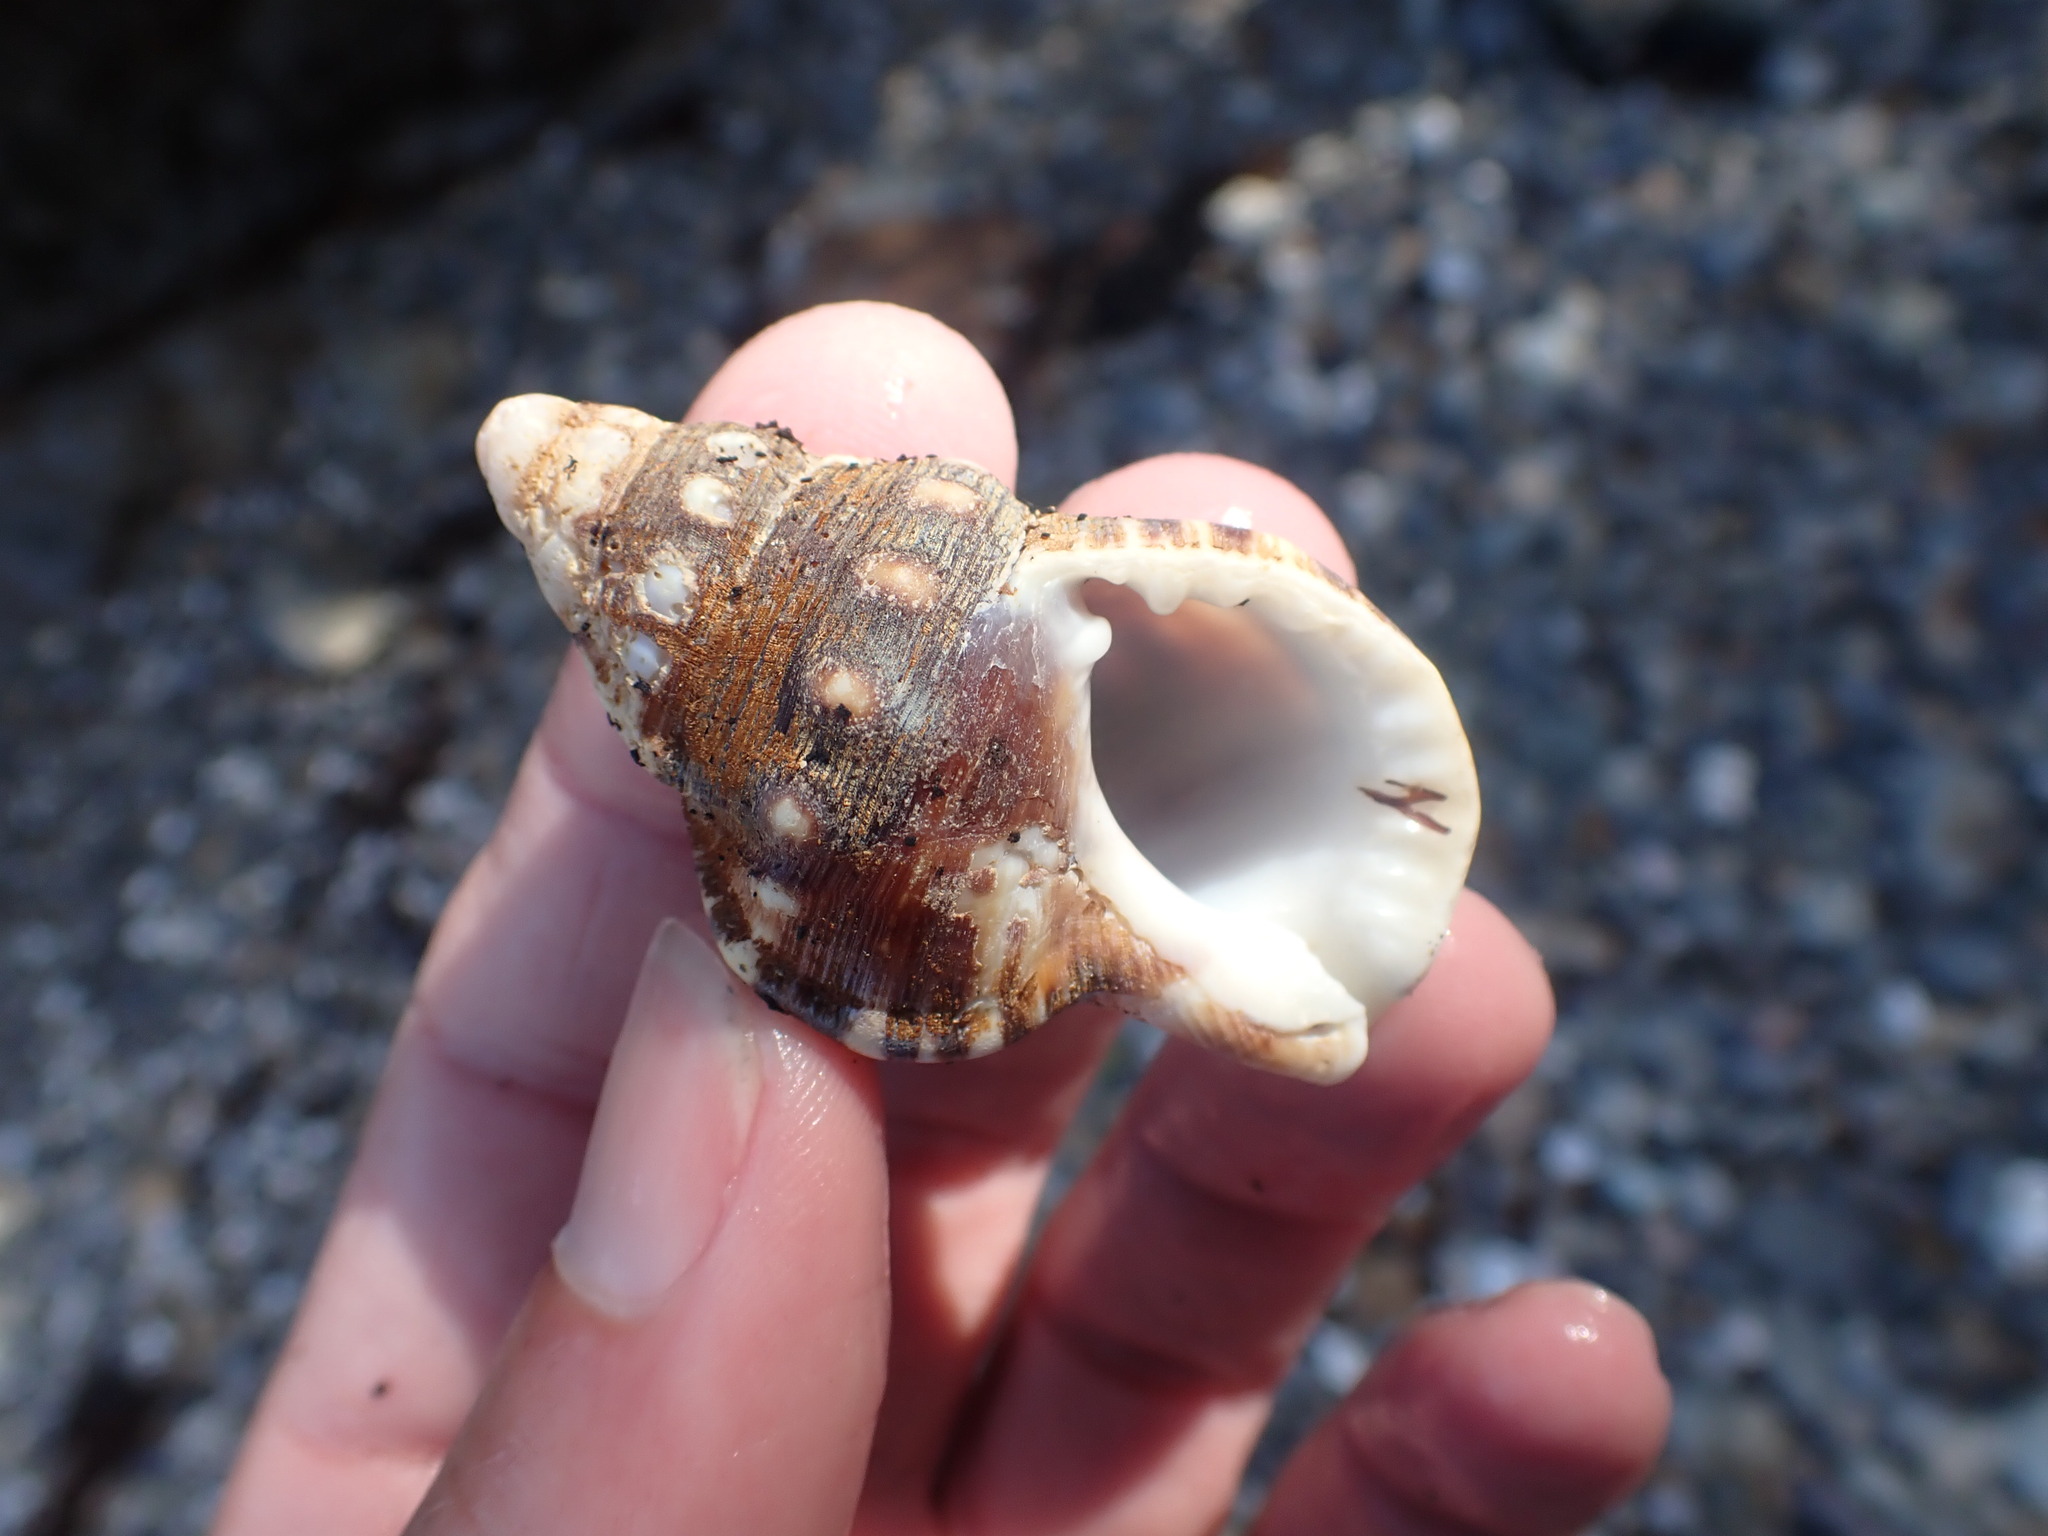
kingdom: Animalia
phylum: Mollusca
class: Gastropoda
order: Littorinimorpha
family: Ranellidae
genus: Ranella
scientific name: Ranella australasia
